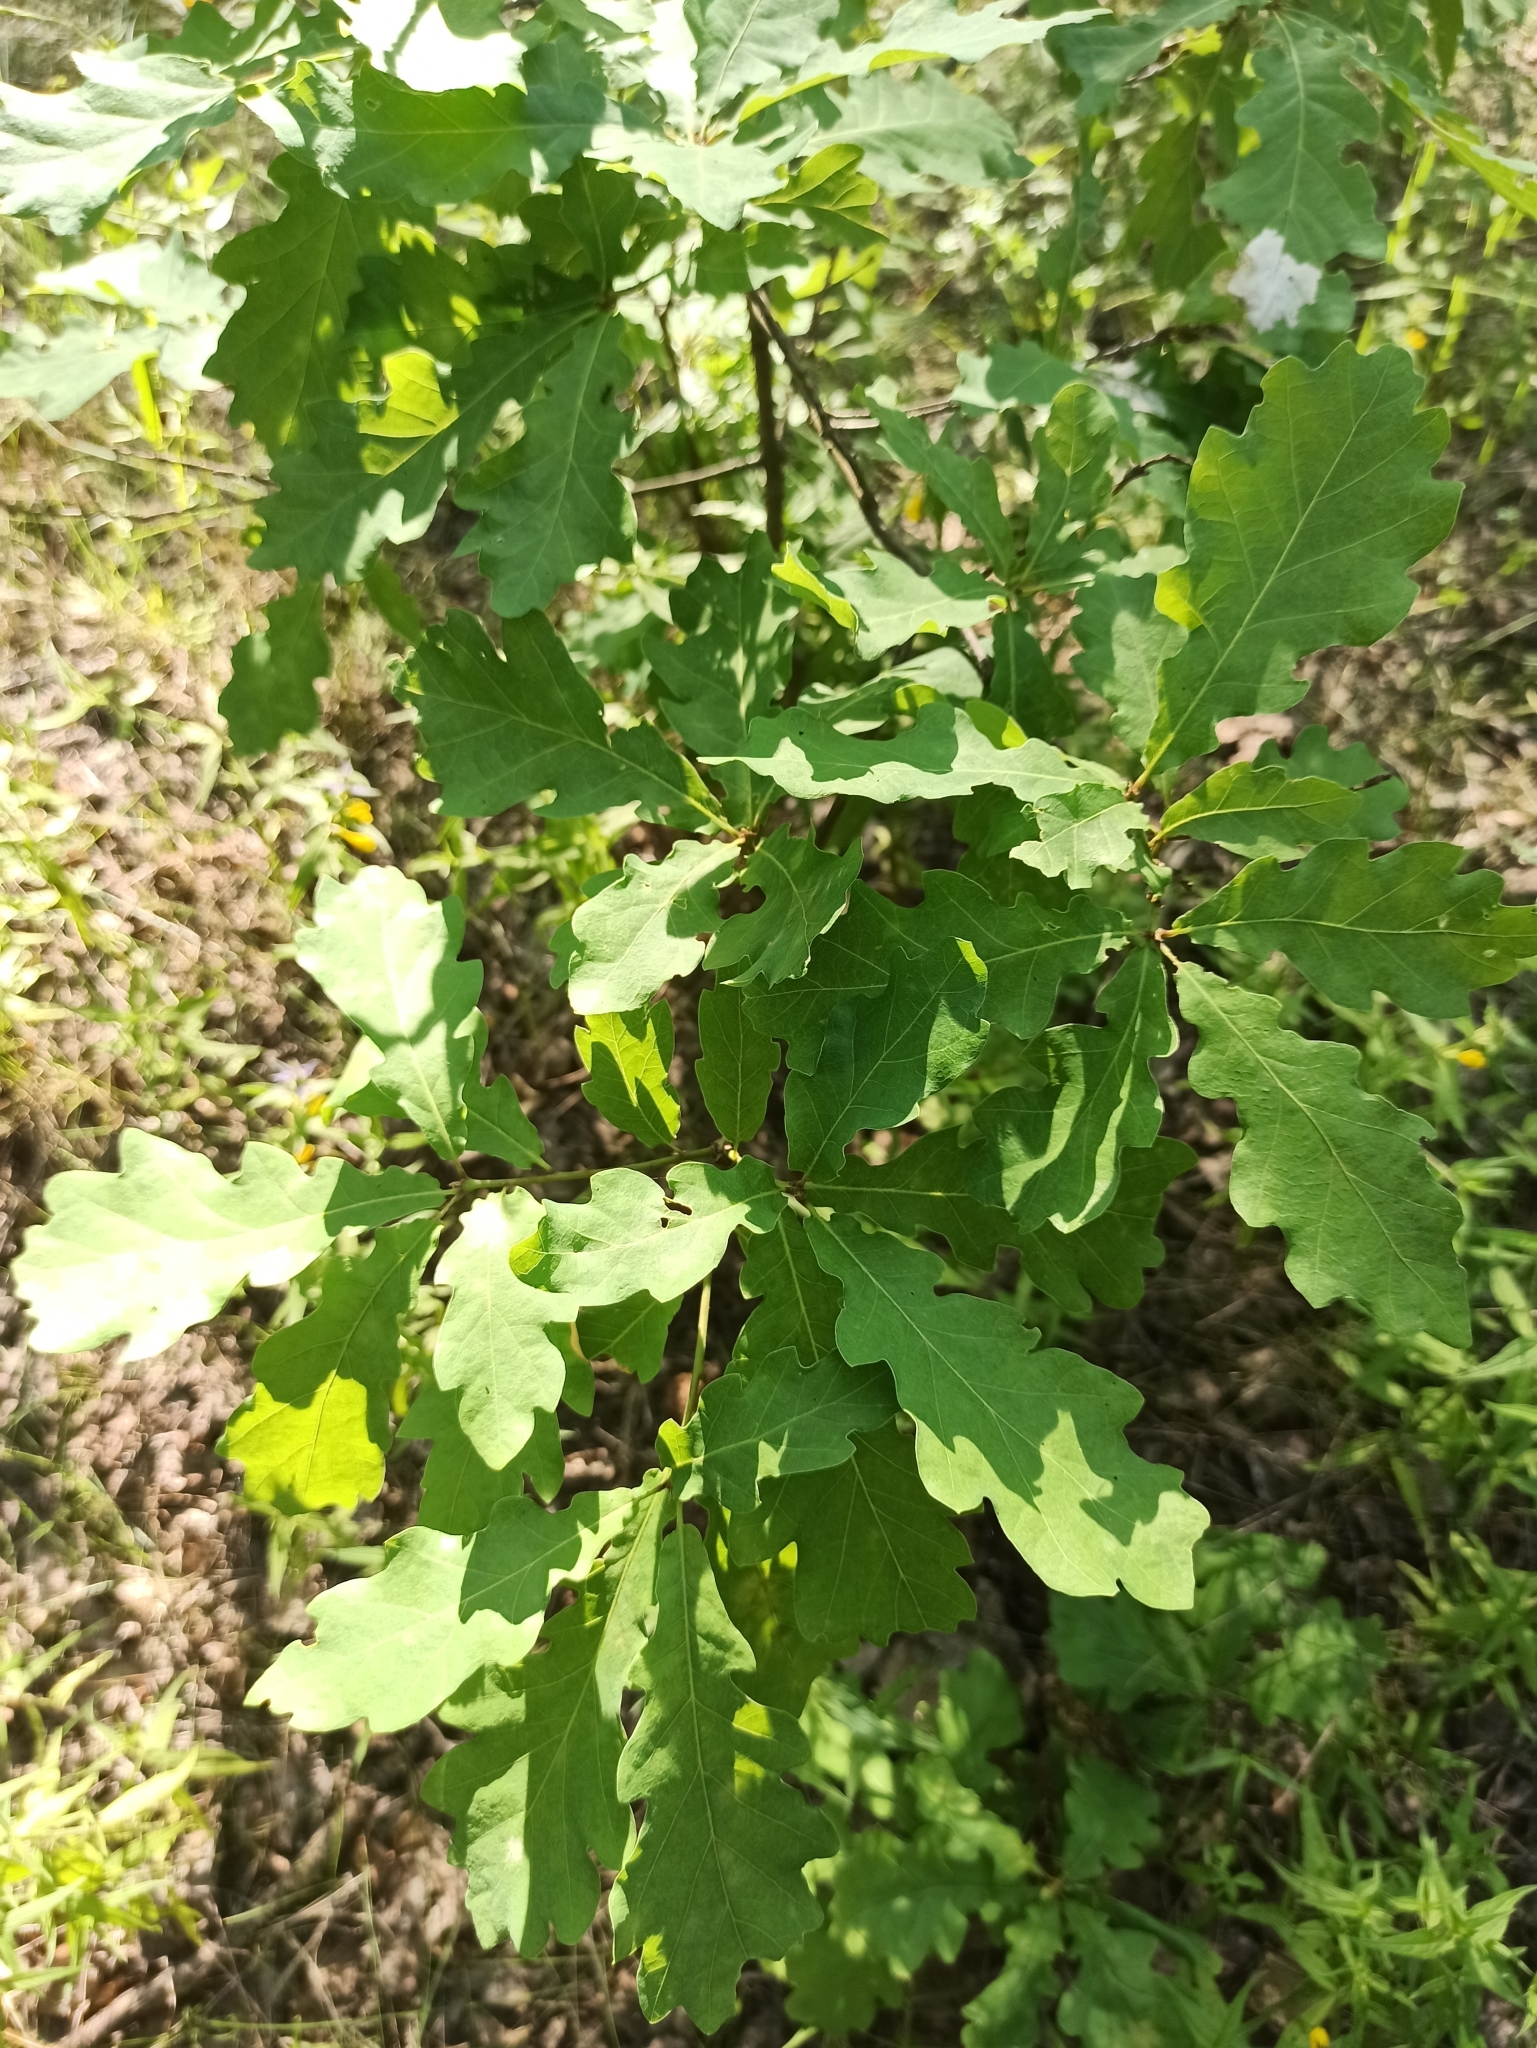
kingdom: Plantae
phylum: Tracheophyta
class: Magnoliopsida
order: Fagales
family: Fagaceae
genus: Quercus
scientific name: Quercus robur
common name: Pedunculate oak
